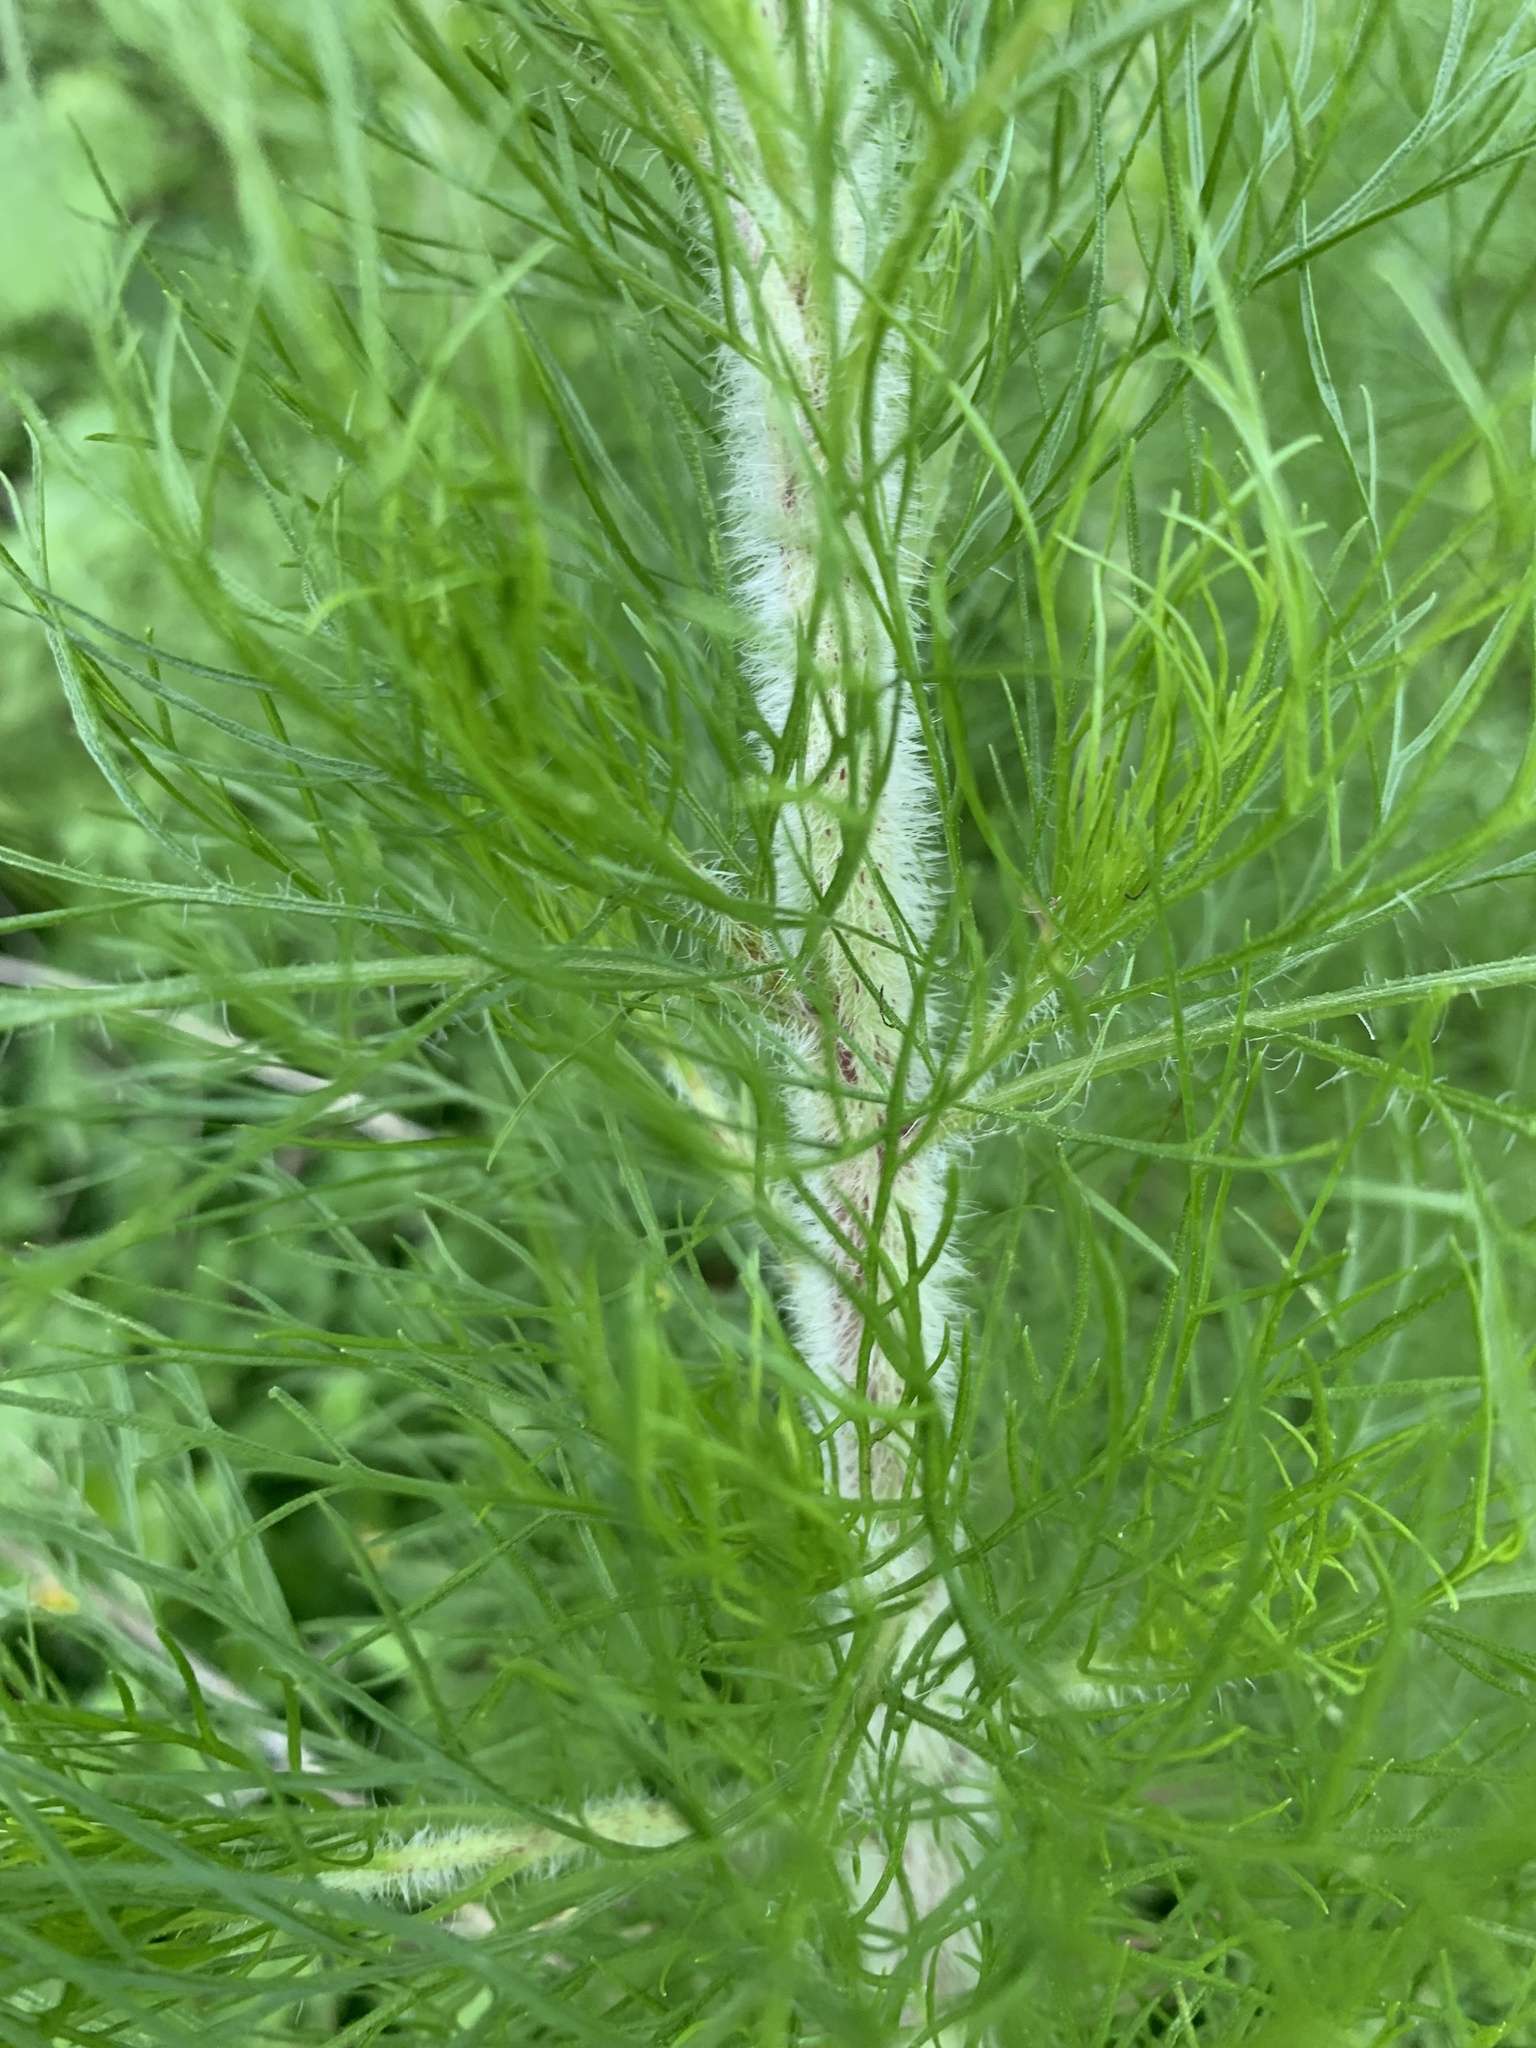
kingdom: Plantae
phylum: Tracheophyta
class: Magnoliopsida
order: Asterales
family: Asteraceae
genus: Eupatorium
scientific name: Eupatorium capillifolium
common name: Dog-fennel
